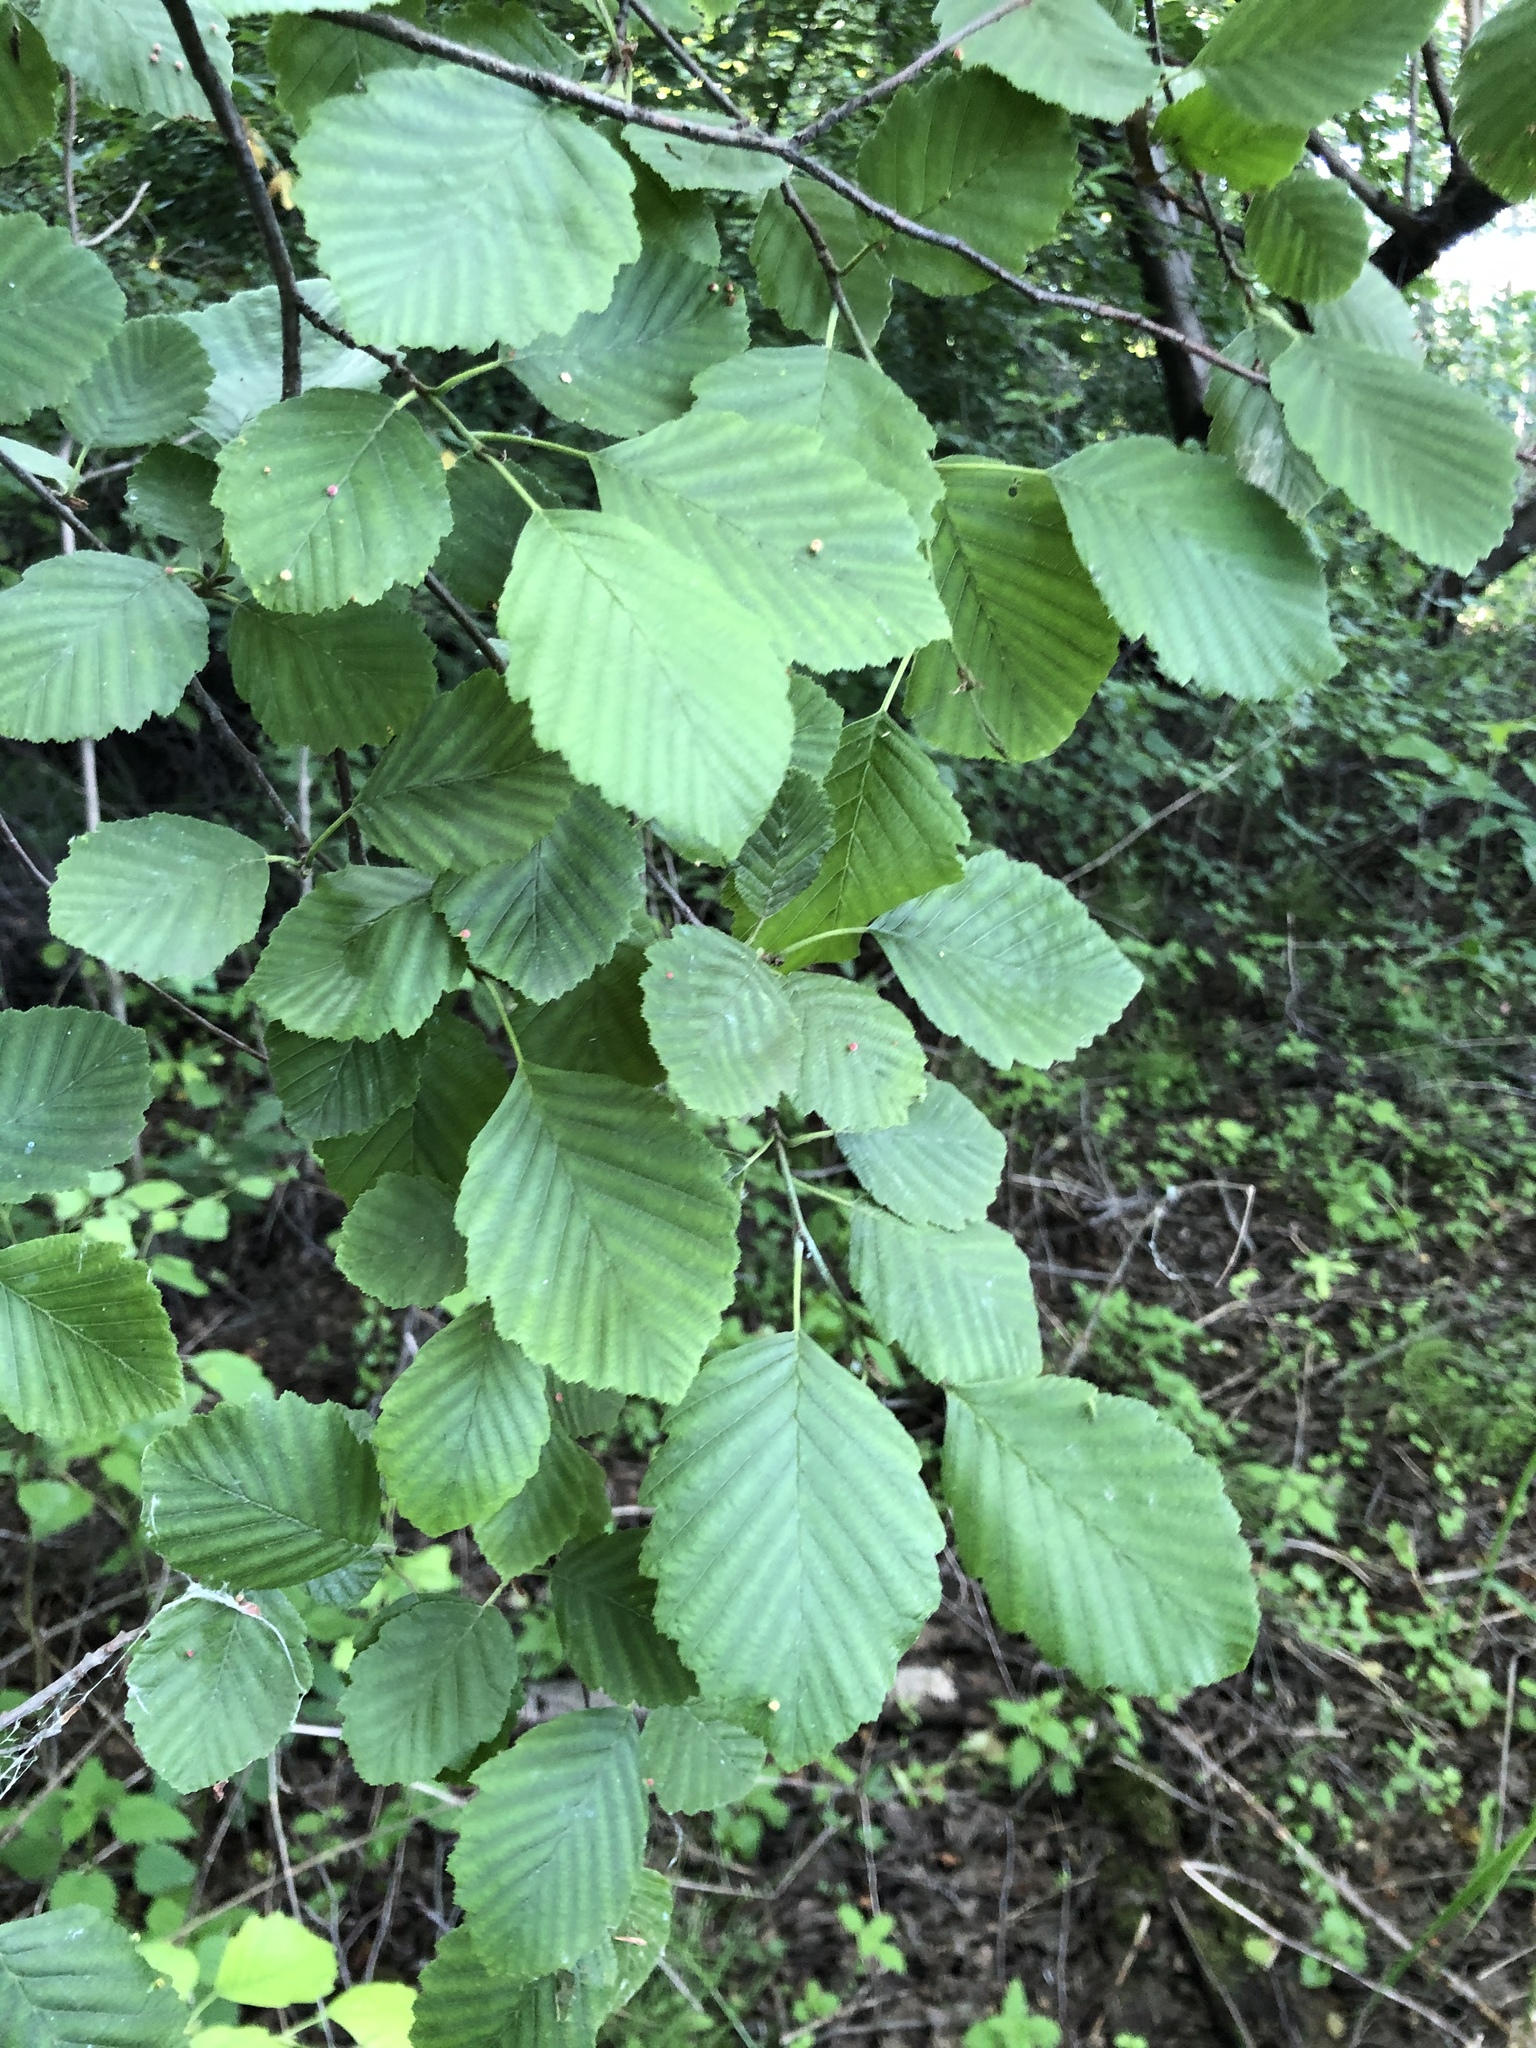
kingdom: Plantae
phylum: Tracheophyta
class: Magnoliopsida
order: Fagales
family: Betulaceae
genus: Alnus
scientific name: Alnus incana
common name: Grey alder
